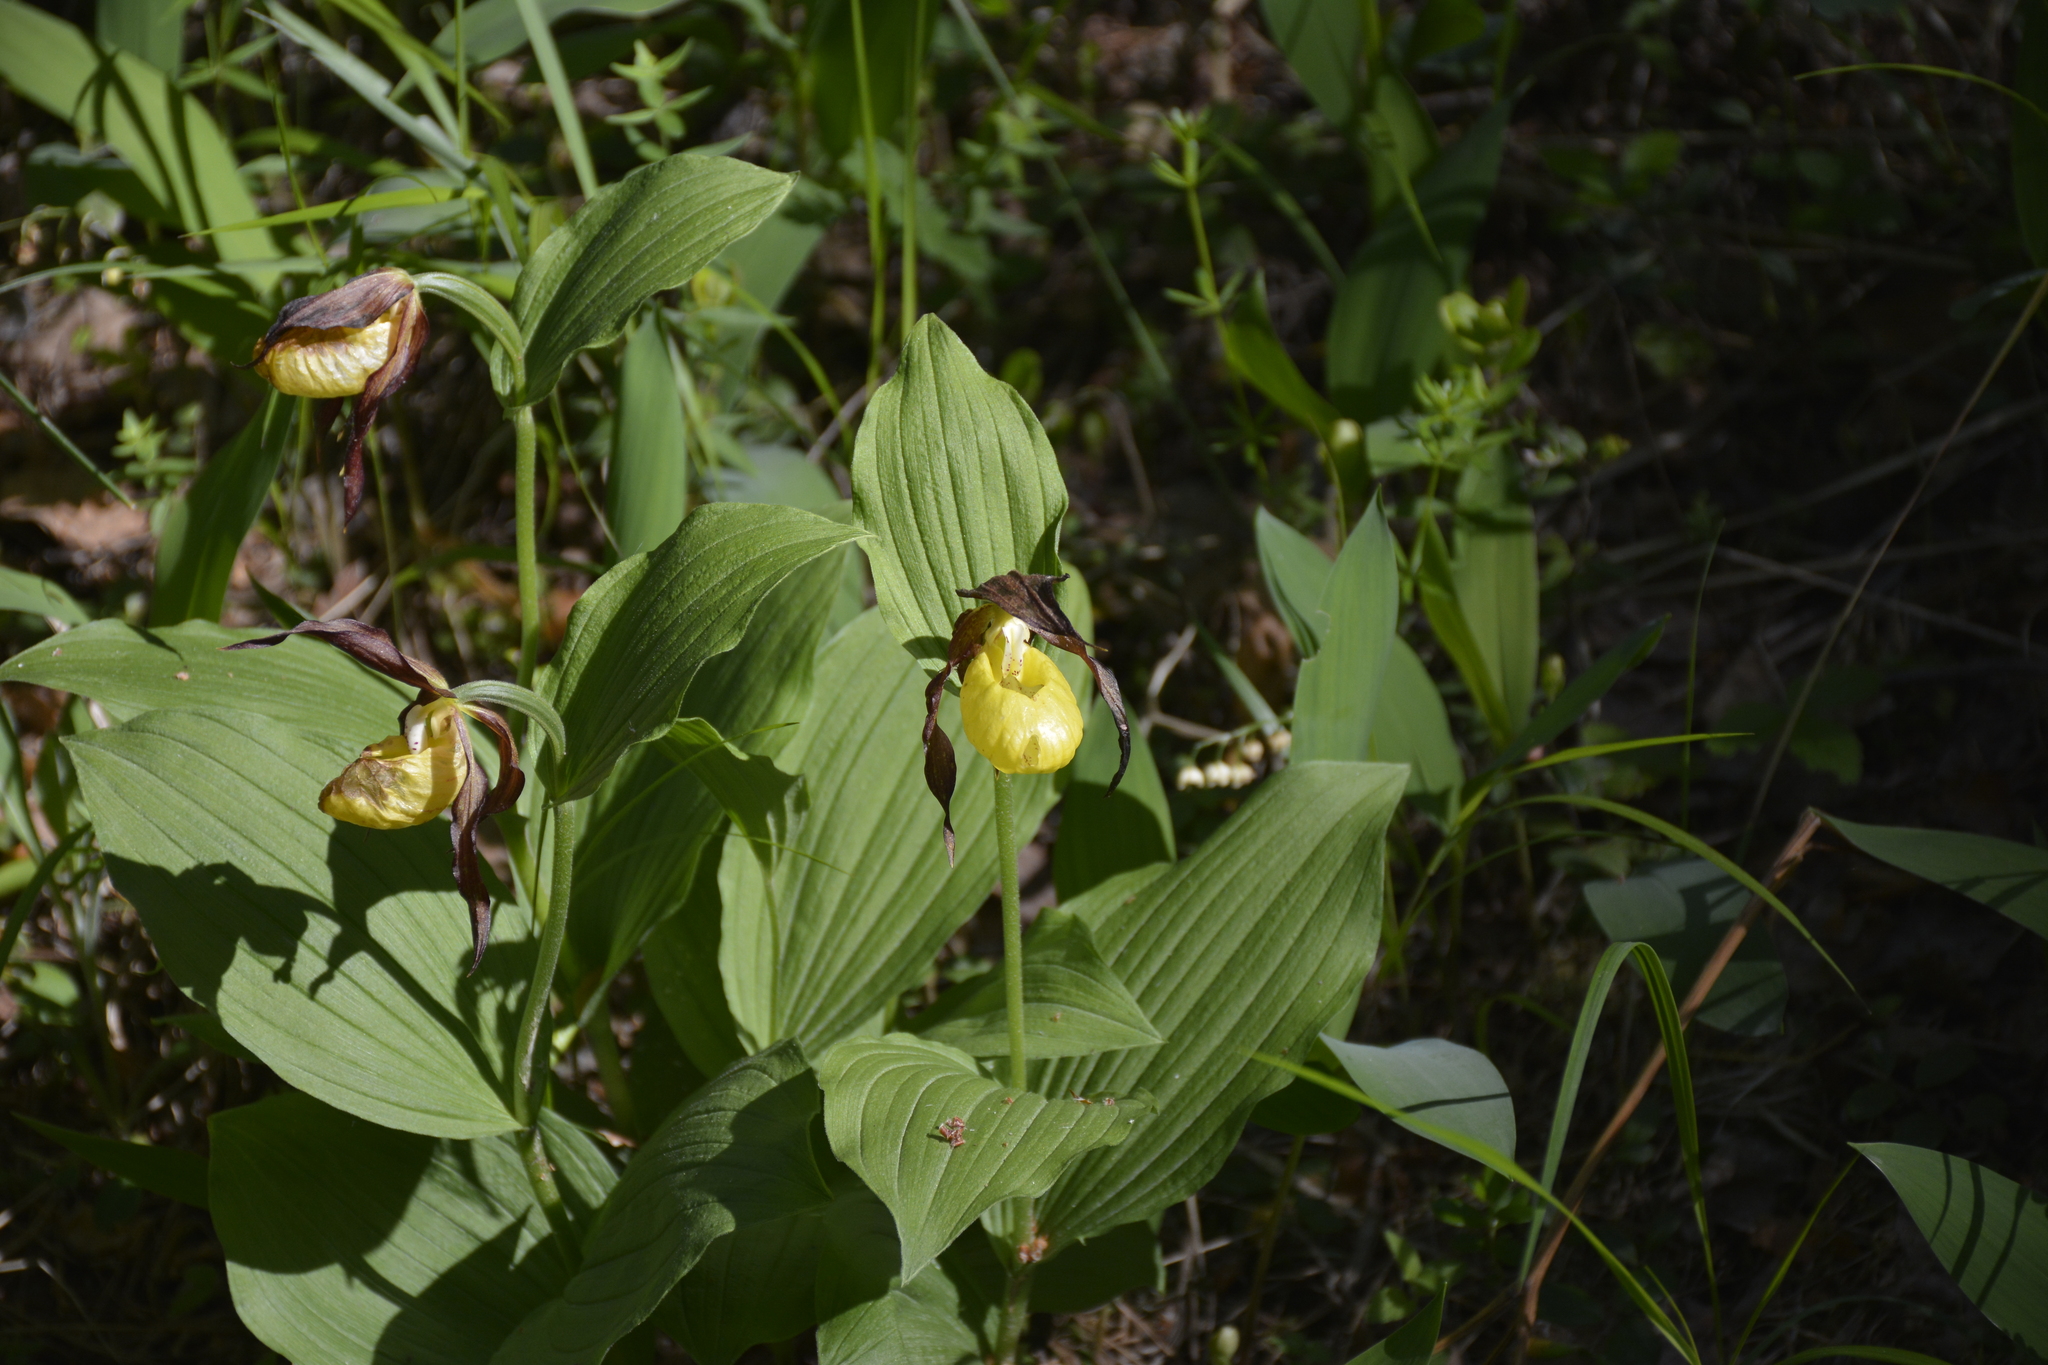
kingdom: Plantae
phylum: Tracheophyta
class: Liliopsida
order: Asparagales
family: Orchidaceae
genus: Cypripedium
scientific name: Cypripedium calceolus
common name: Lady's-slipper
